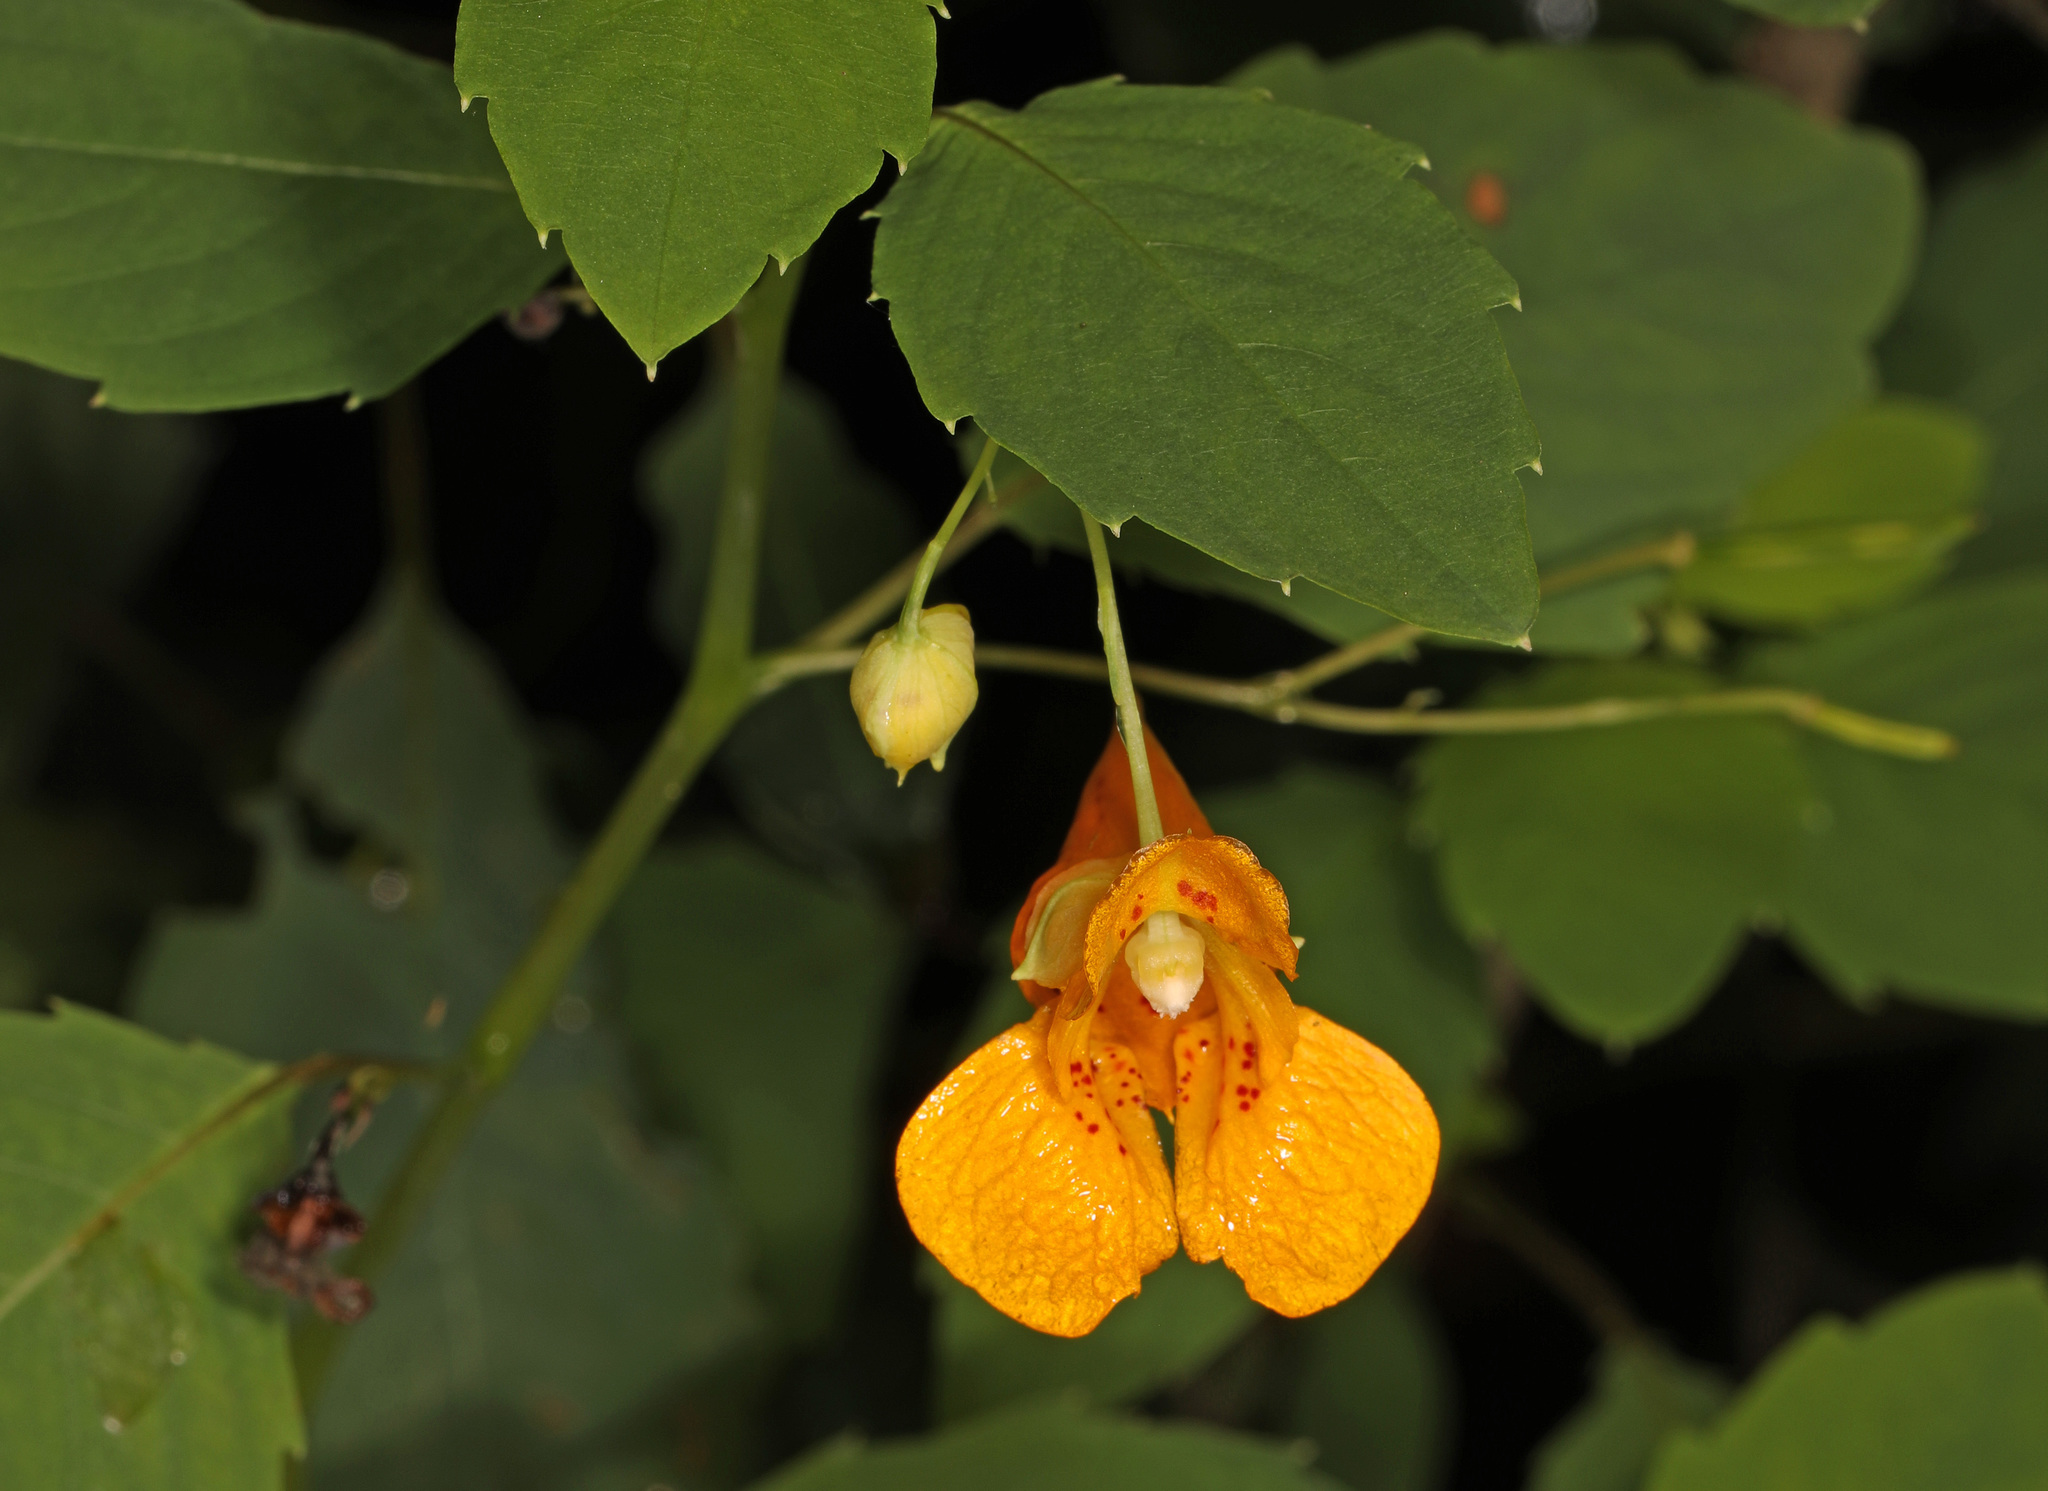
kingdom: Plantae
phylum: Tracheophyta
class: Magnoliopsida
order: Ericales
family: Balsaminaceae
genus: Impatiens
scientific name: Impatiens capensis
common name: Orange balsam
